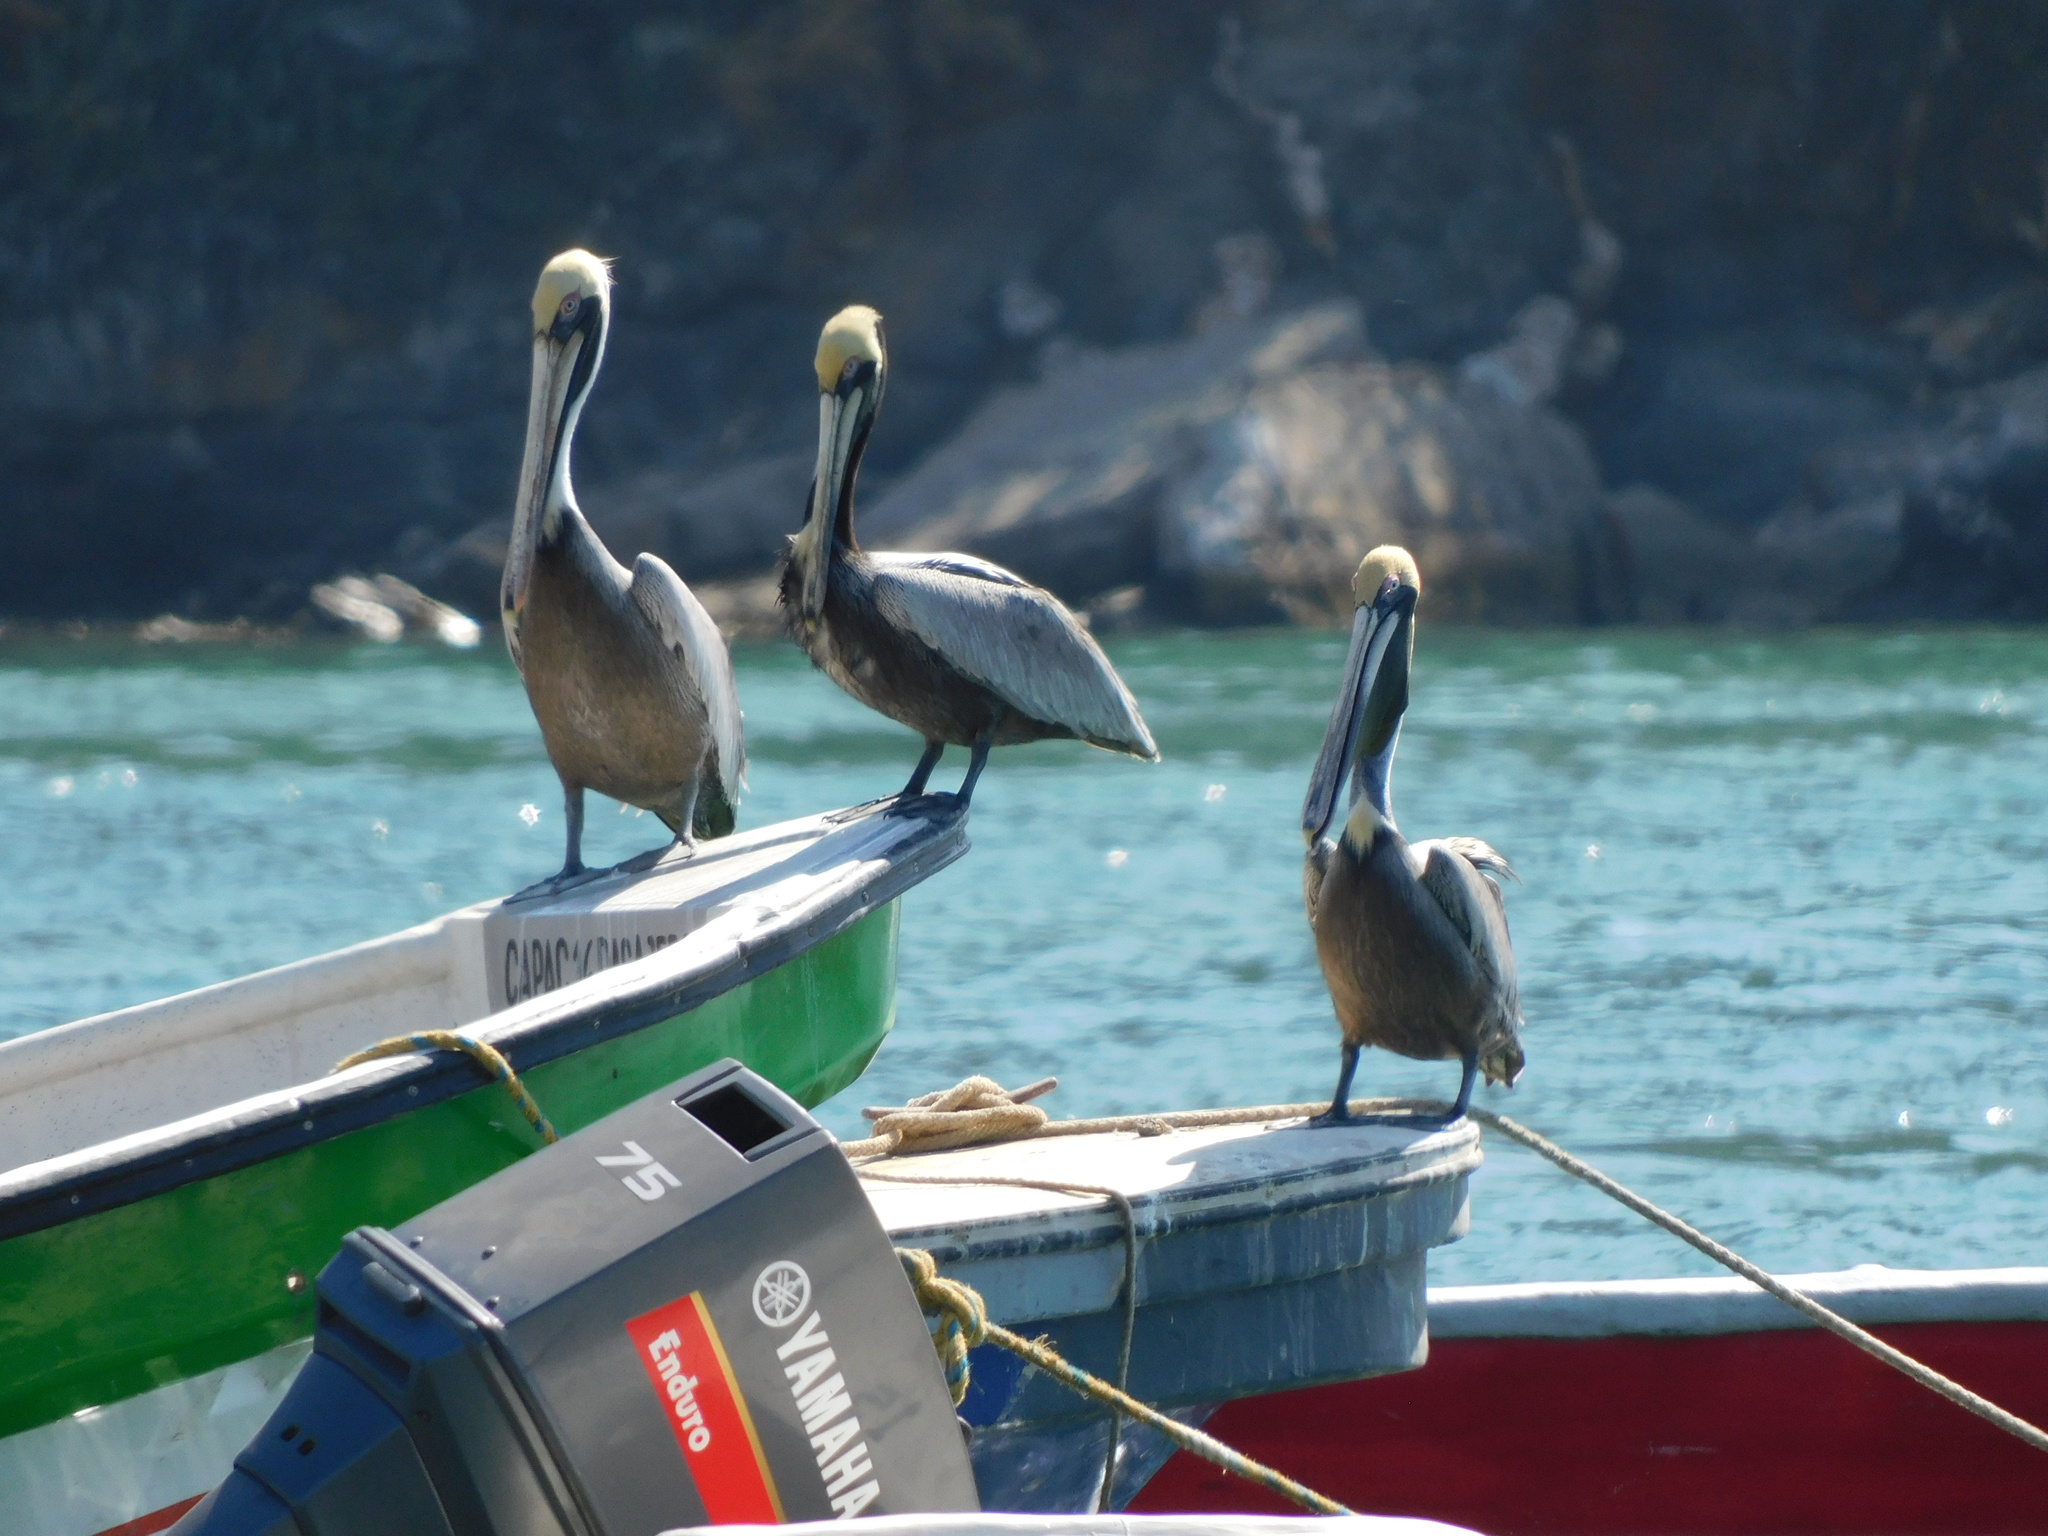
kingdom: Animalia
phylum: Chordata
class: Aves
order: Pelecaniformes
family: Pelecanidae
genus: Pelecanus
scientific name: Pelecanus occidentalis
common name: Brown pelican
